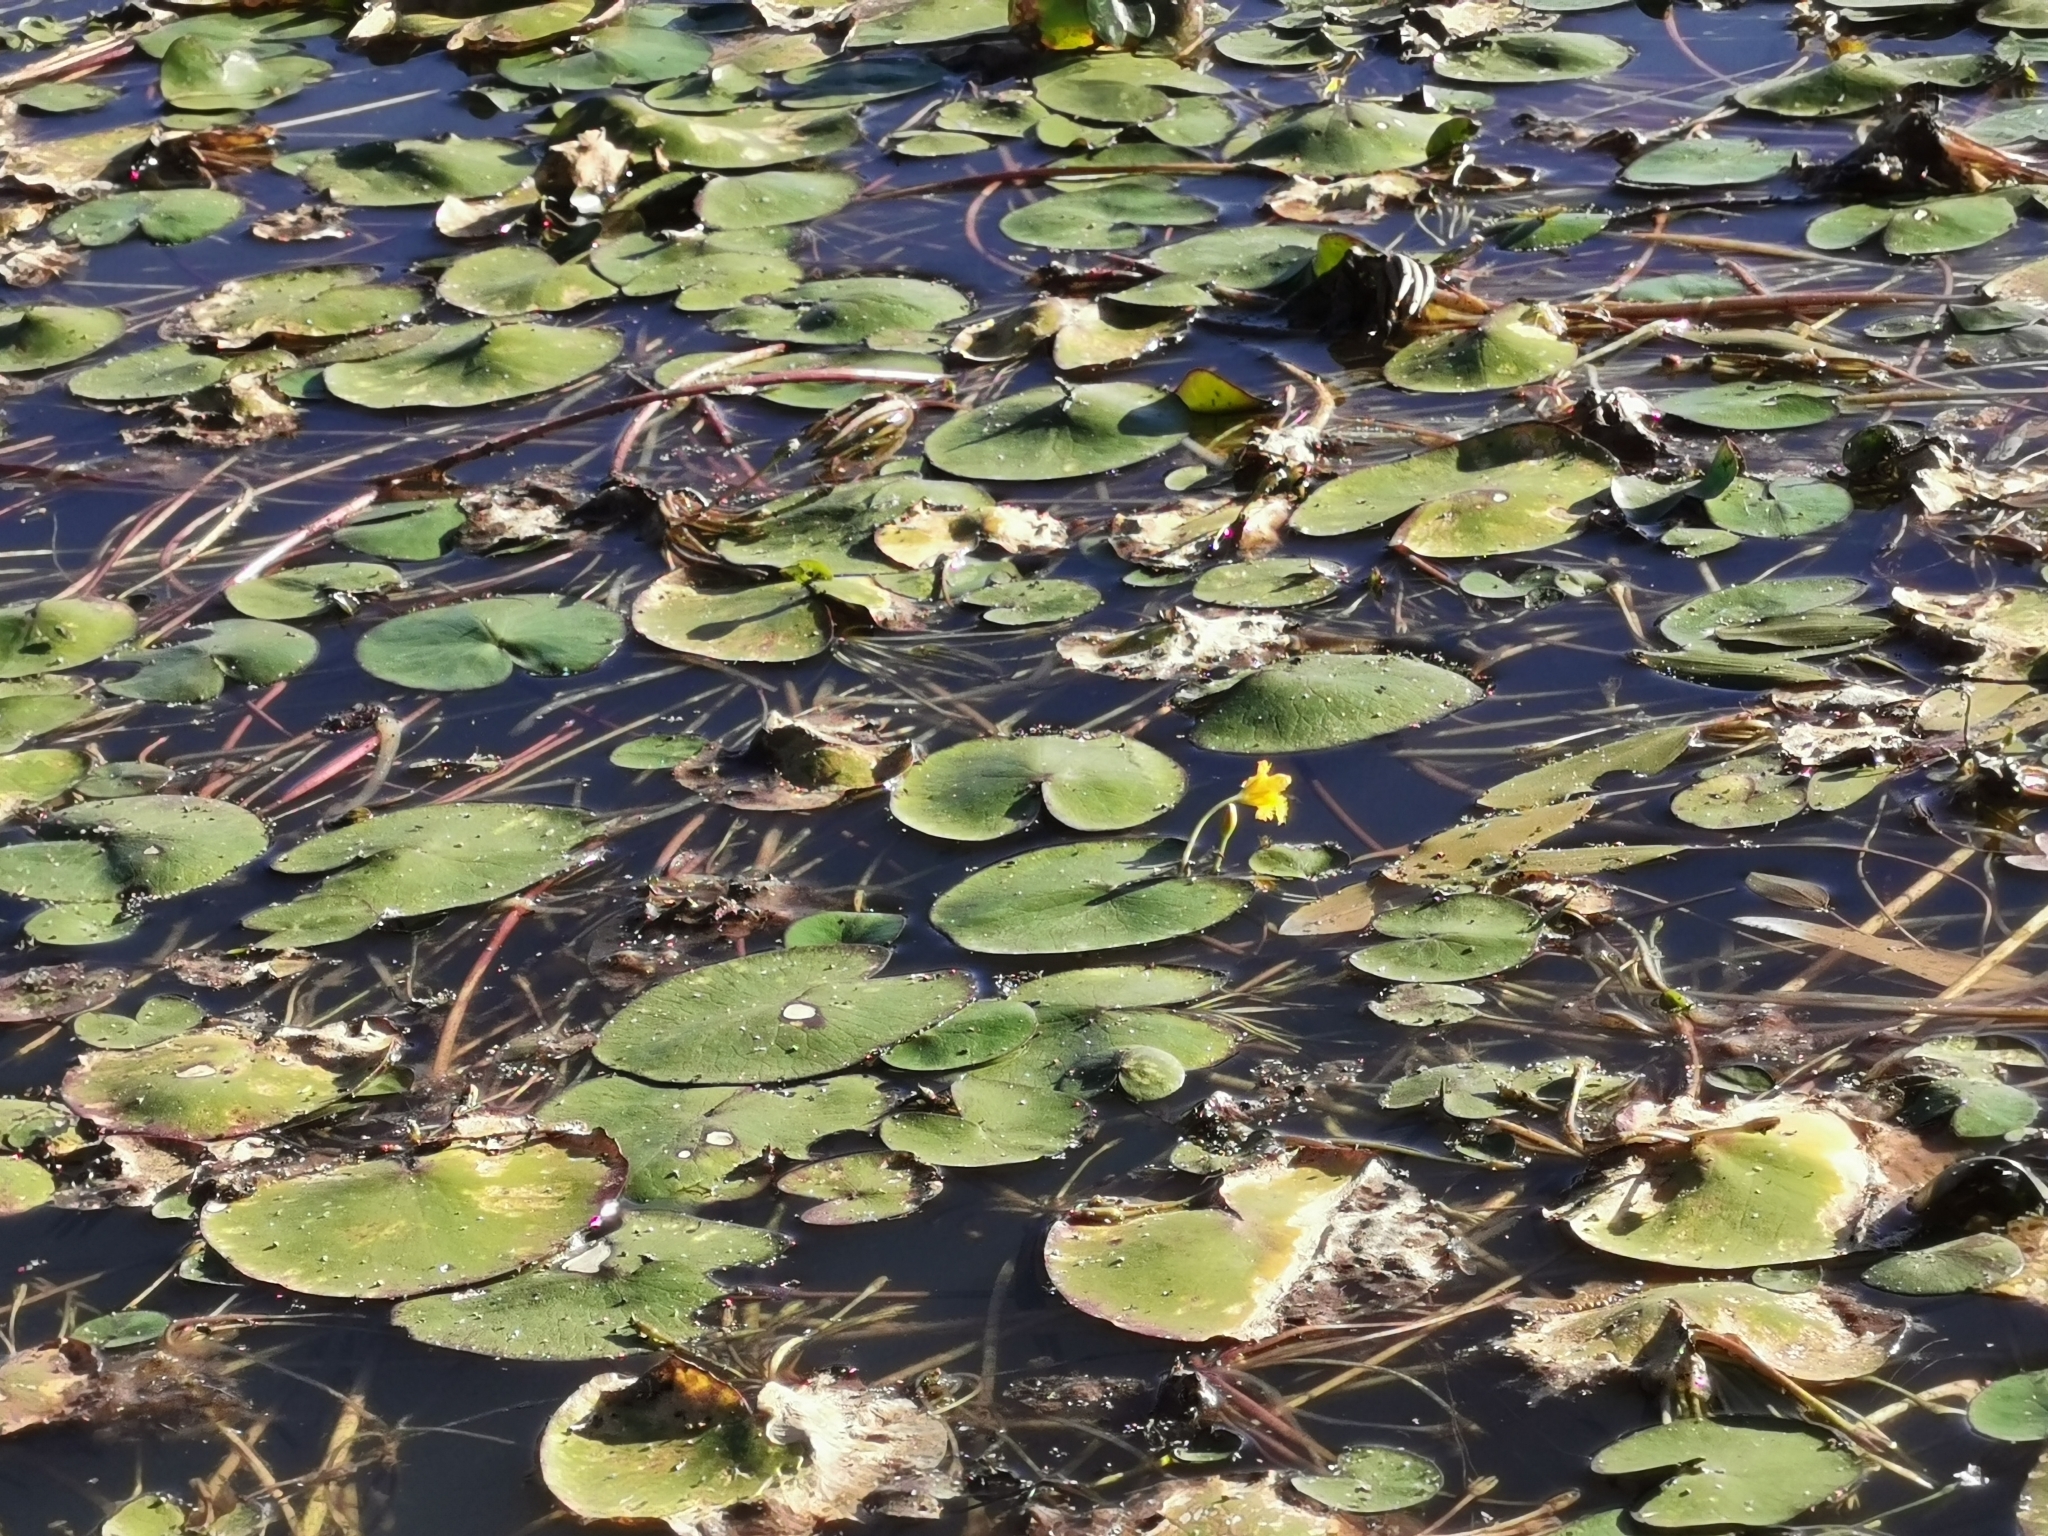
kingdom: Plantae
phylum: Tracheophyta
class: Magnoliopsida
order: Asterales
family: Menyanthaceae
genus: Nymphoides
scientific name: Nymphoides fallax
